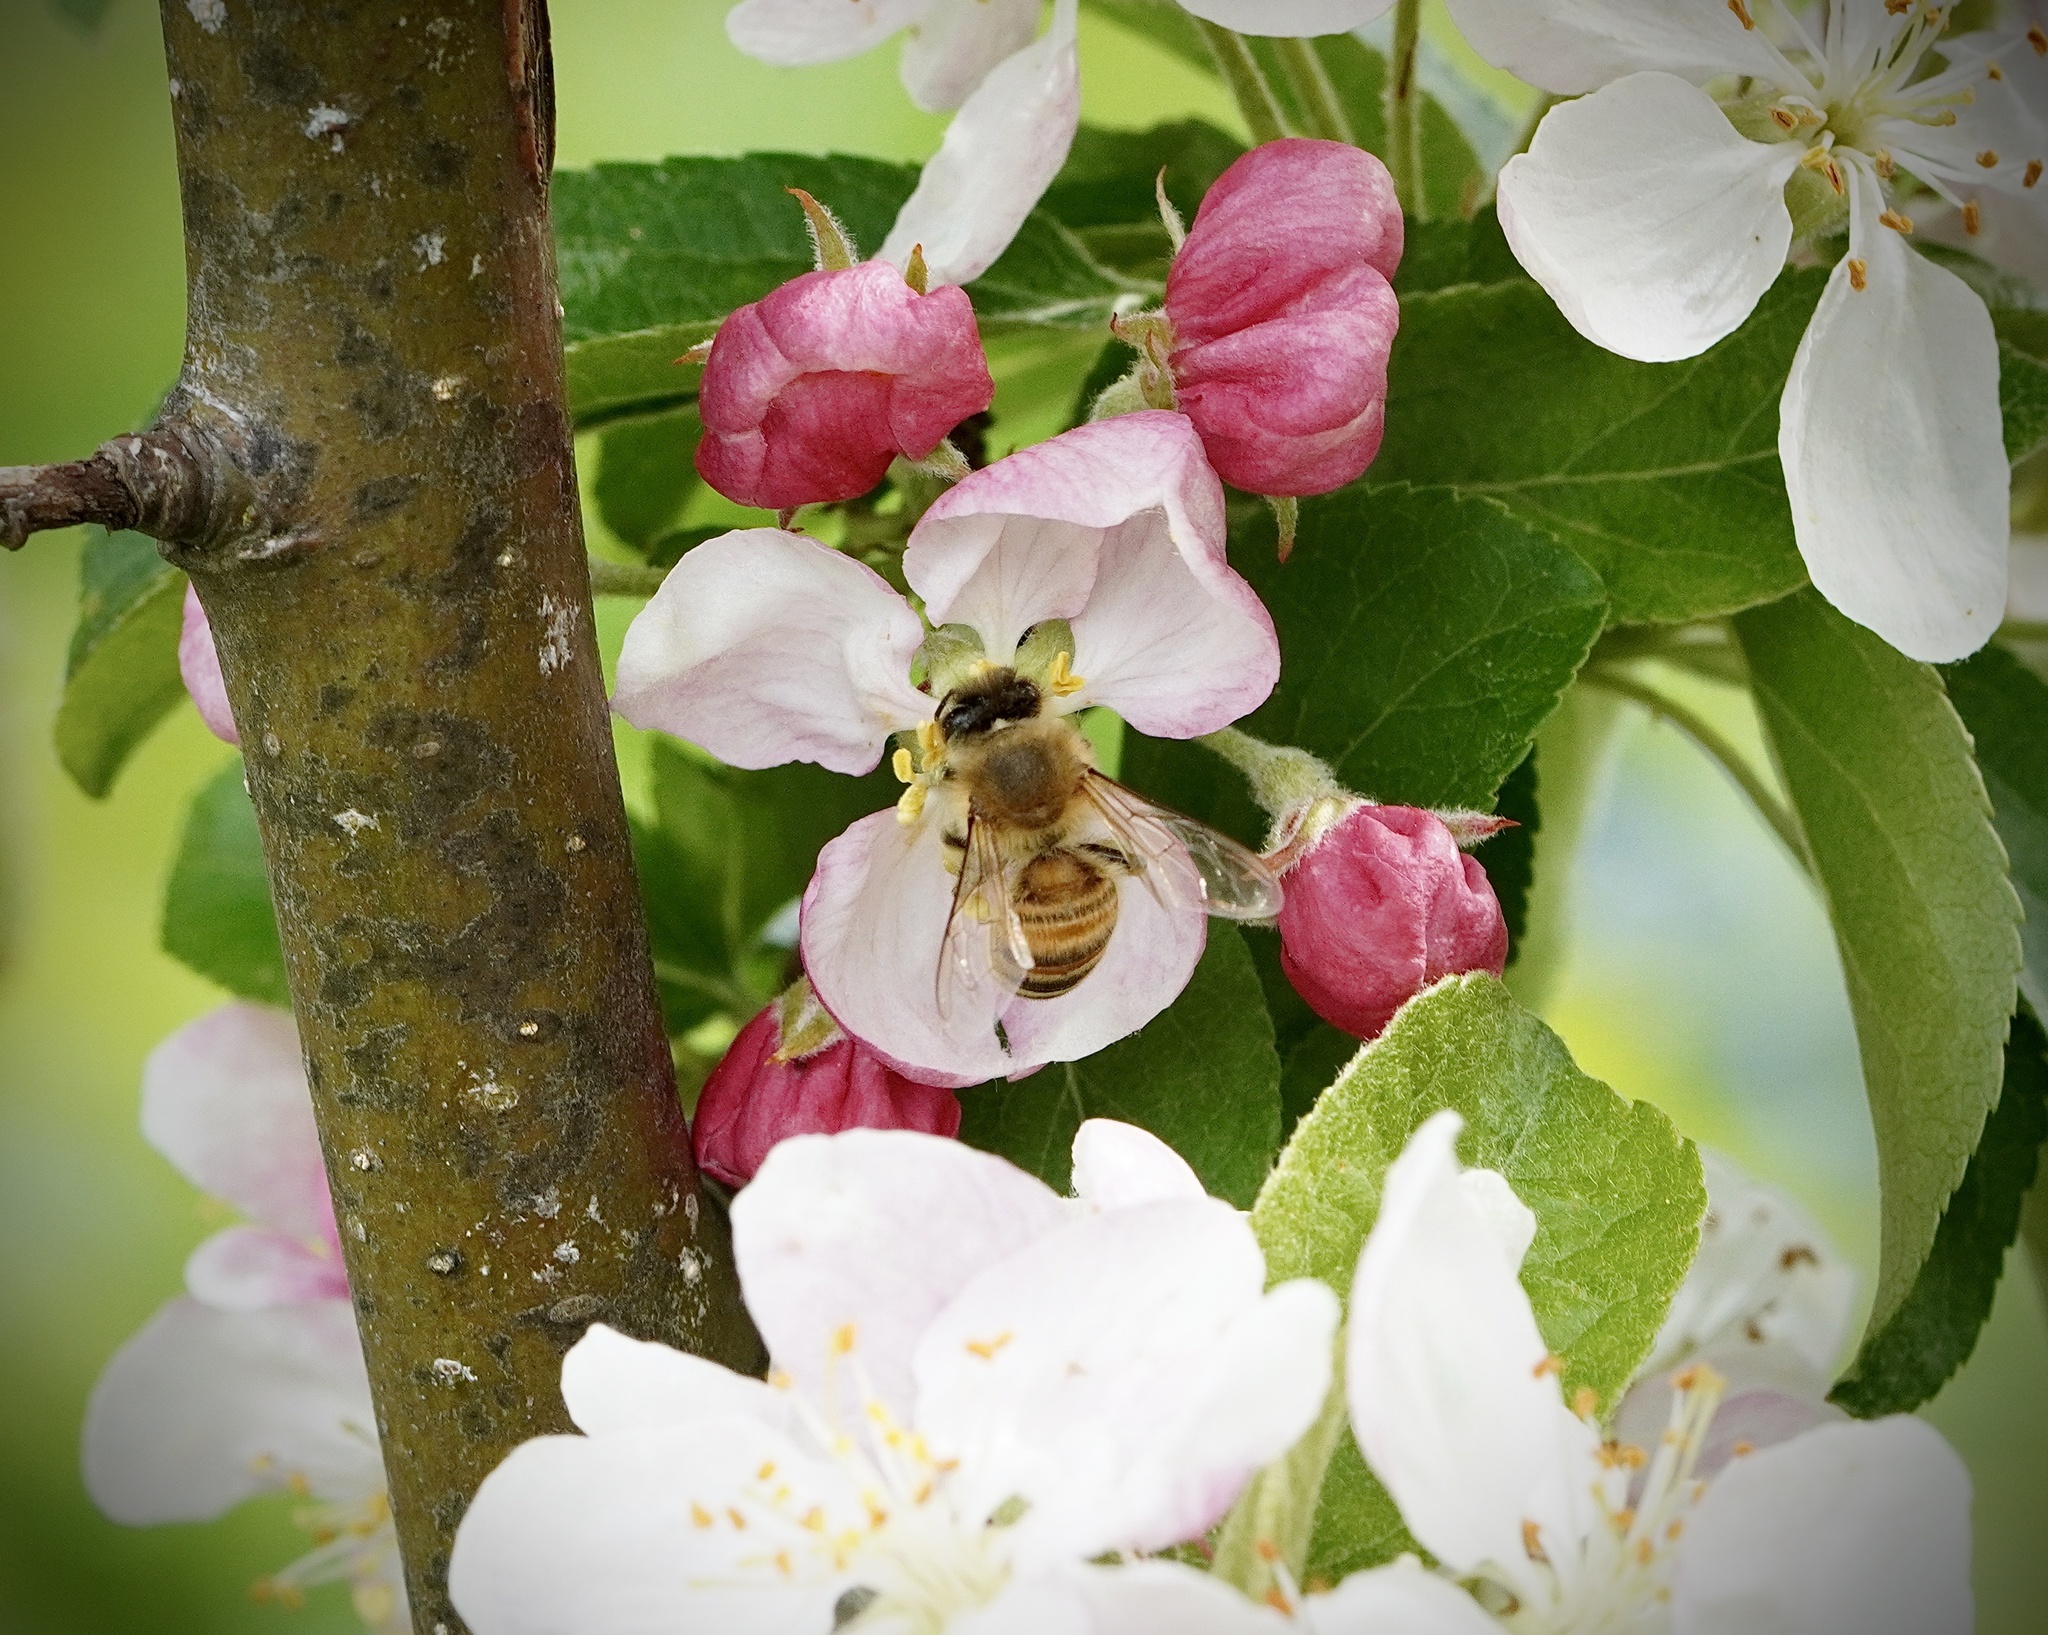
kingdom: Animalia
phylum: Arthropoda
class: Insecta
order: Hymenoptera
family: Apidae
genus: Apis
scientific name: Apis mellifera
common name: Honey bee
